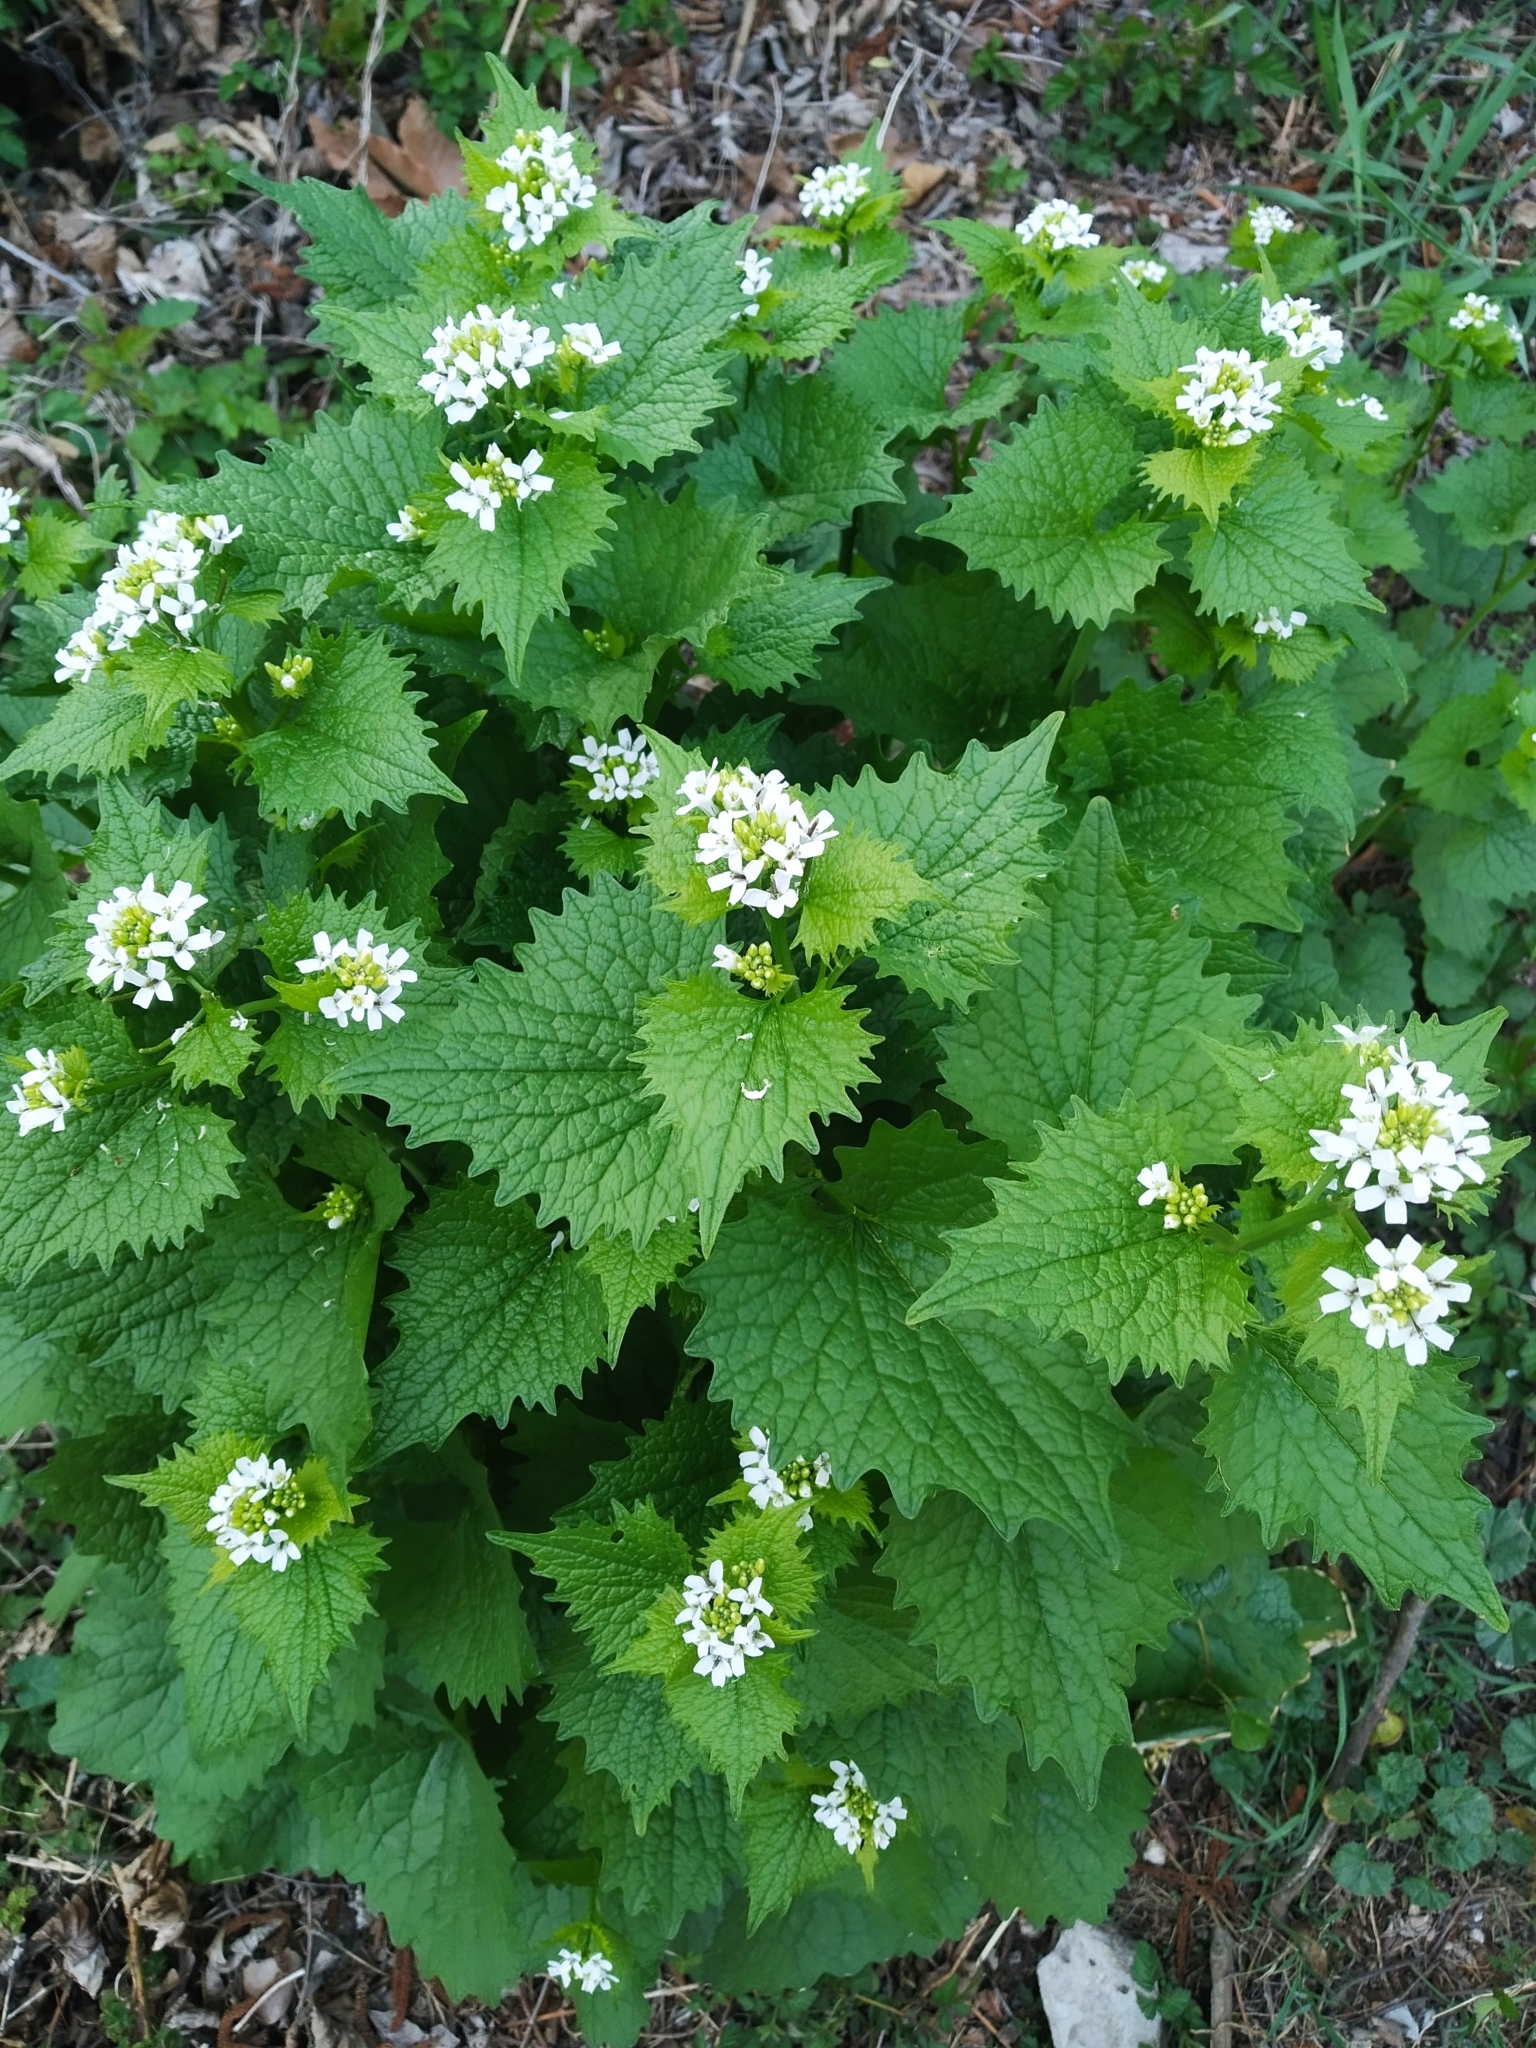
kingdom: Plantae
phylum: Tracheophyta
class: Magnoliopsida
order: Brassicales
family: Brassicaceae
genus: Alliaria
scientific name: Alliaria petiolata
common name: Garlic mustard
